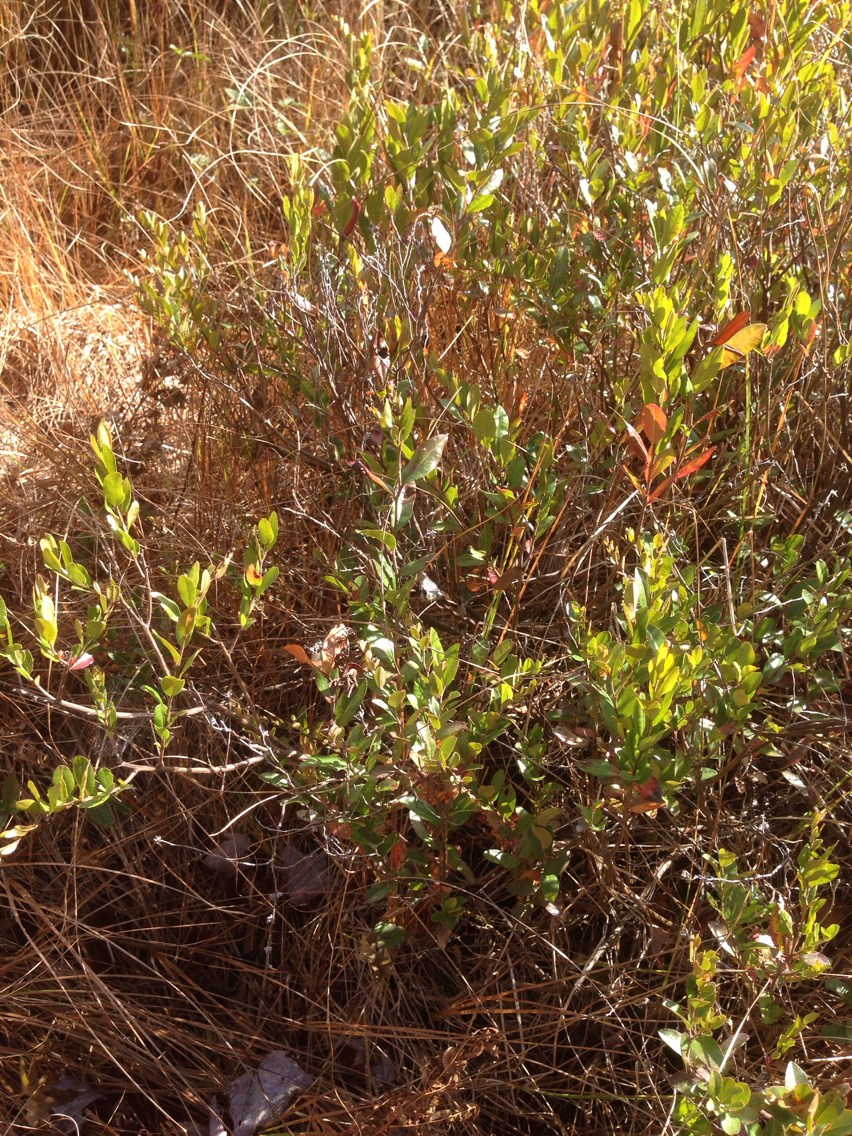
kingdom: Plantae
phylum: Tracheophyta
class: Magnoliopsida
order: Ericales
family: Ericaceae
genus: Chamaedaphne
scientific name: Chamaedaphne calyculata
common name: Leatherleaf
